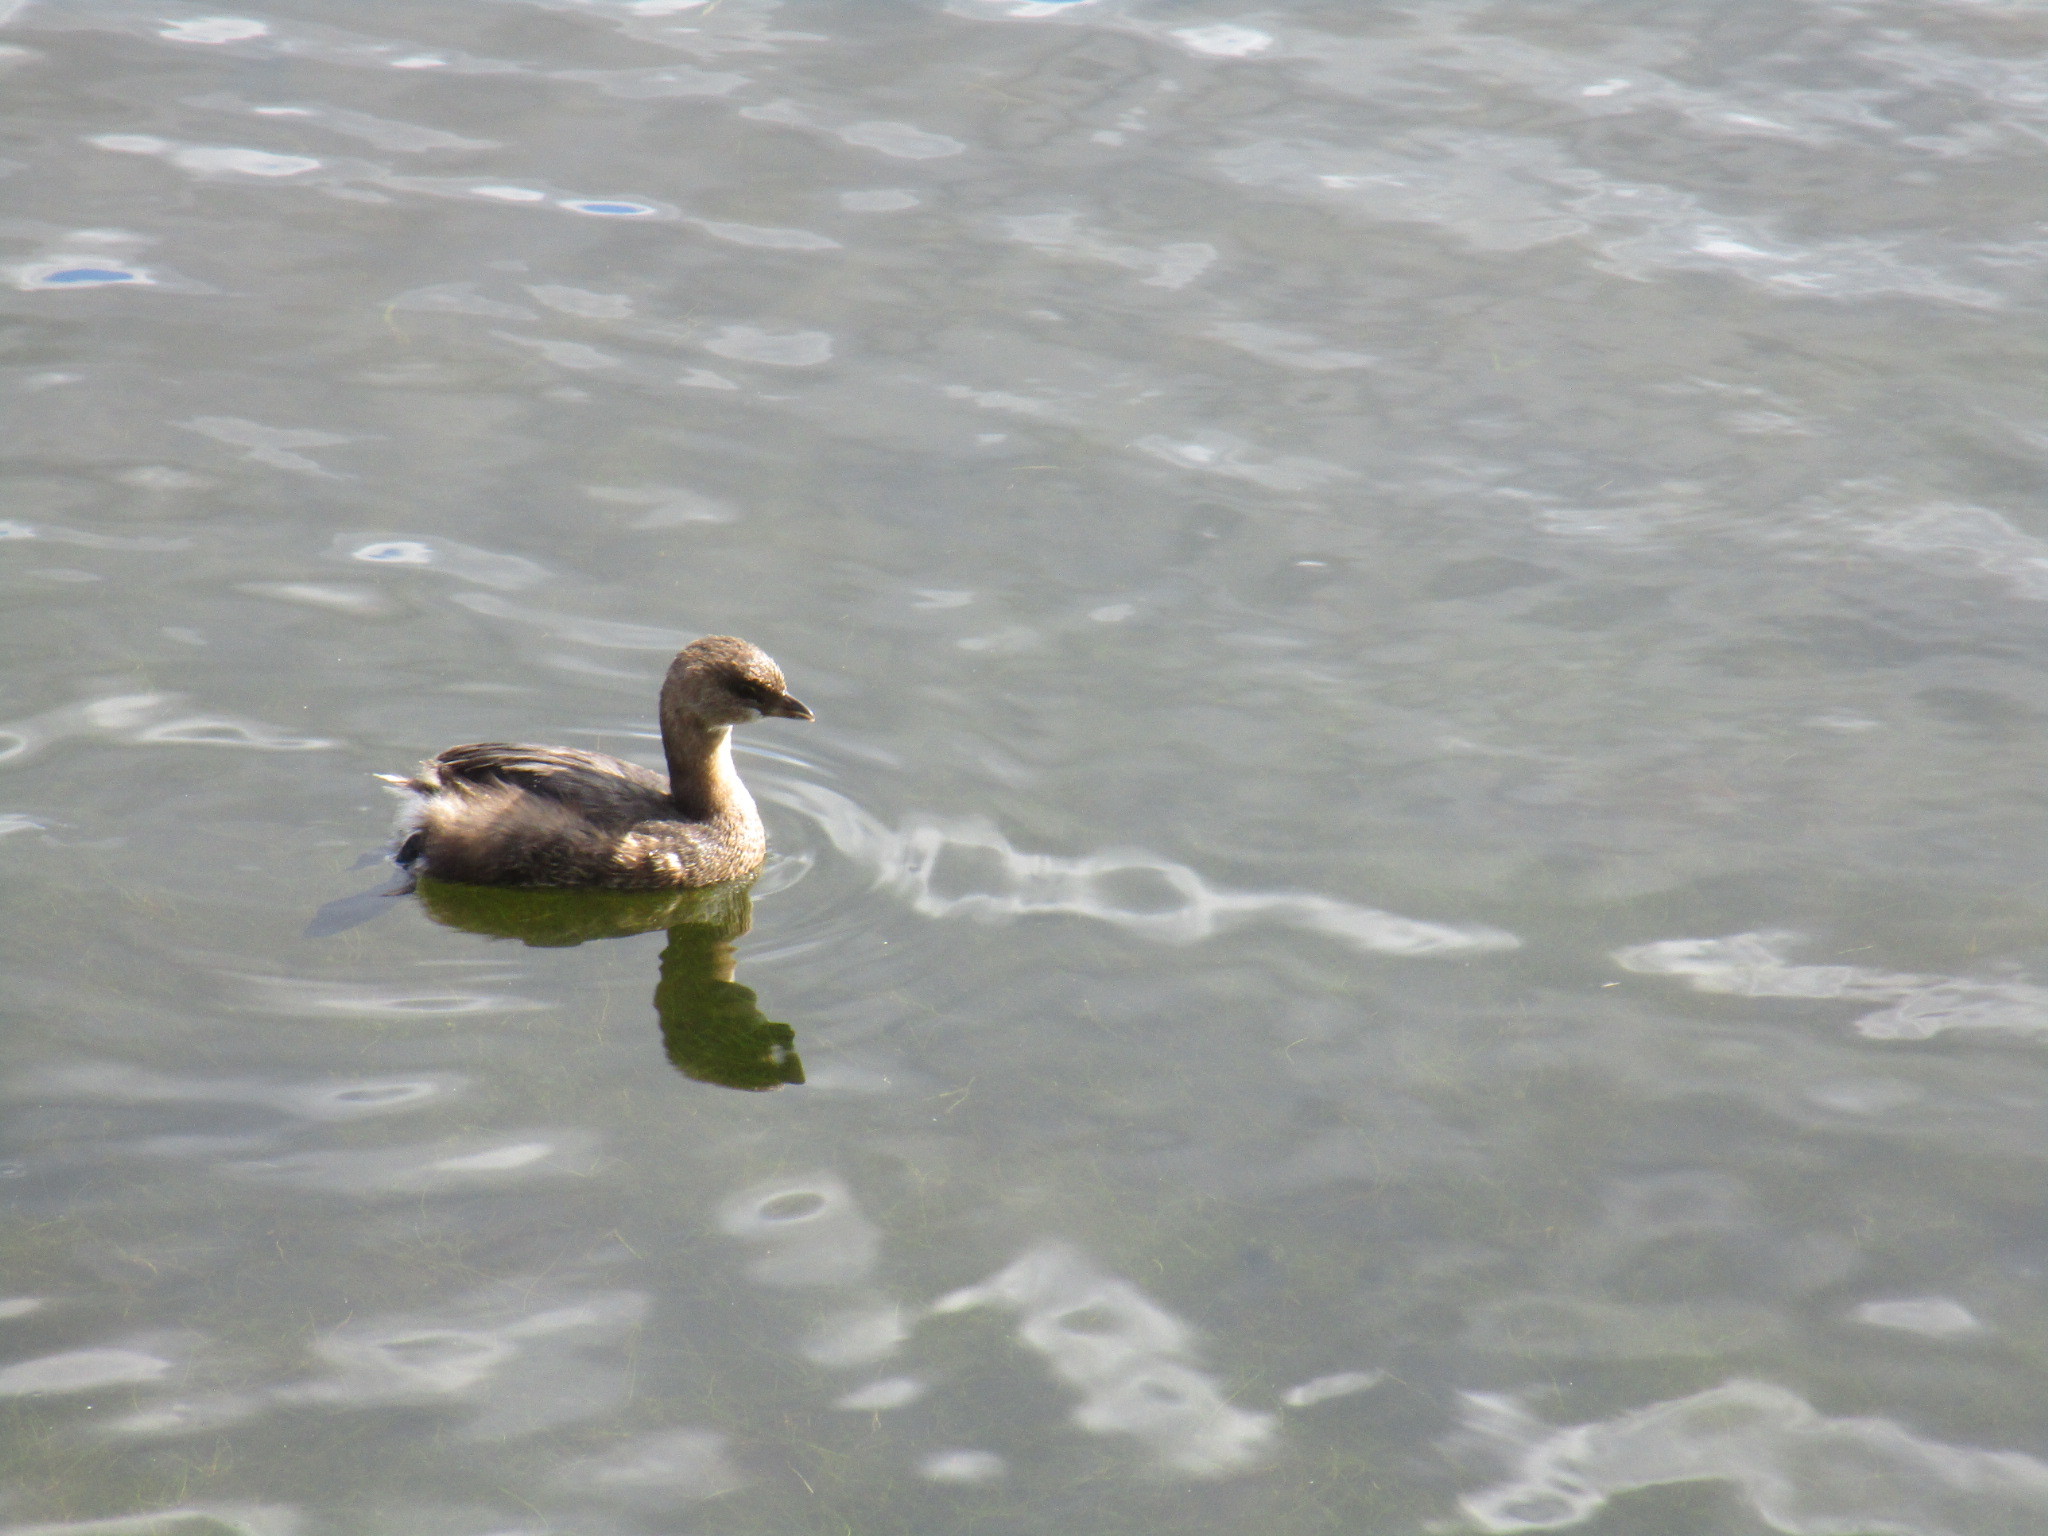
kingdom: Animalia
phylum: Chordata
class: Aves
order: Podicipediformes
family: Podicipedidae
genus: Podilymbus
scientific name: Podilymbus podiceps
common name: Pied-billed grebe
